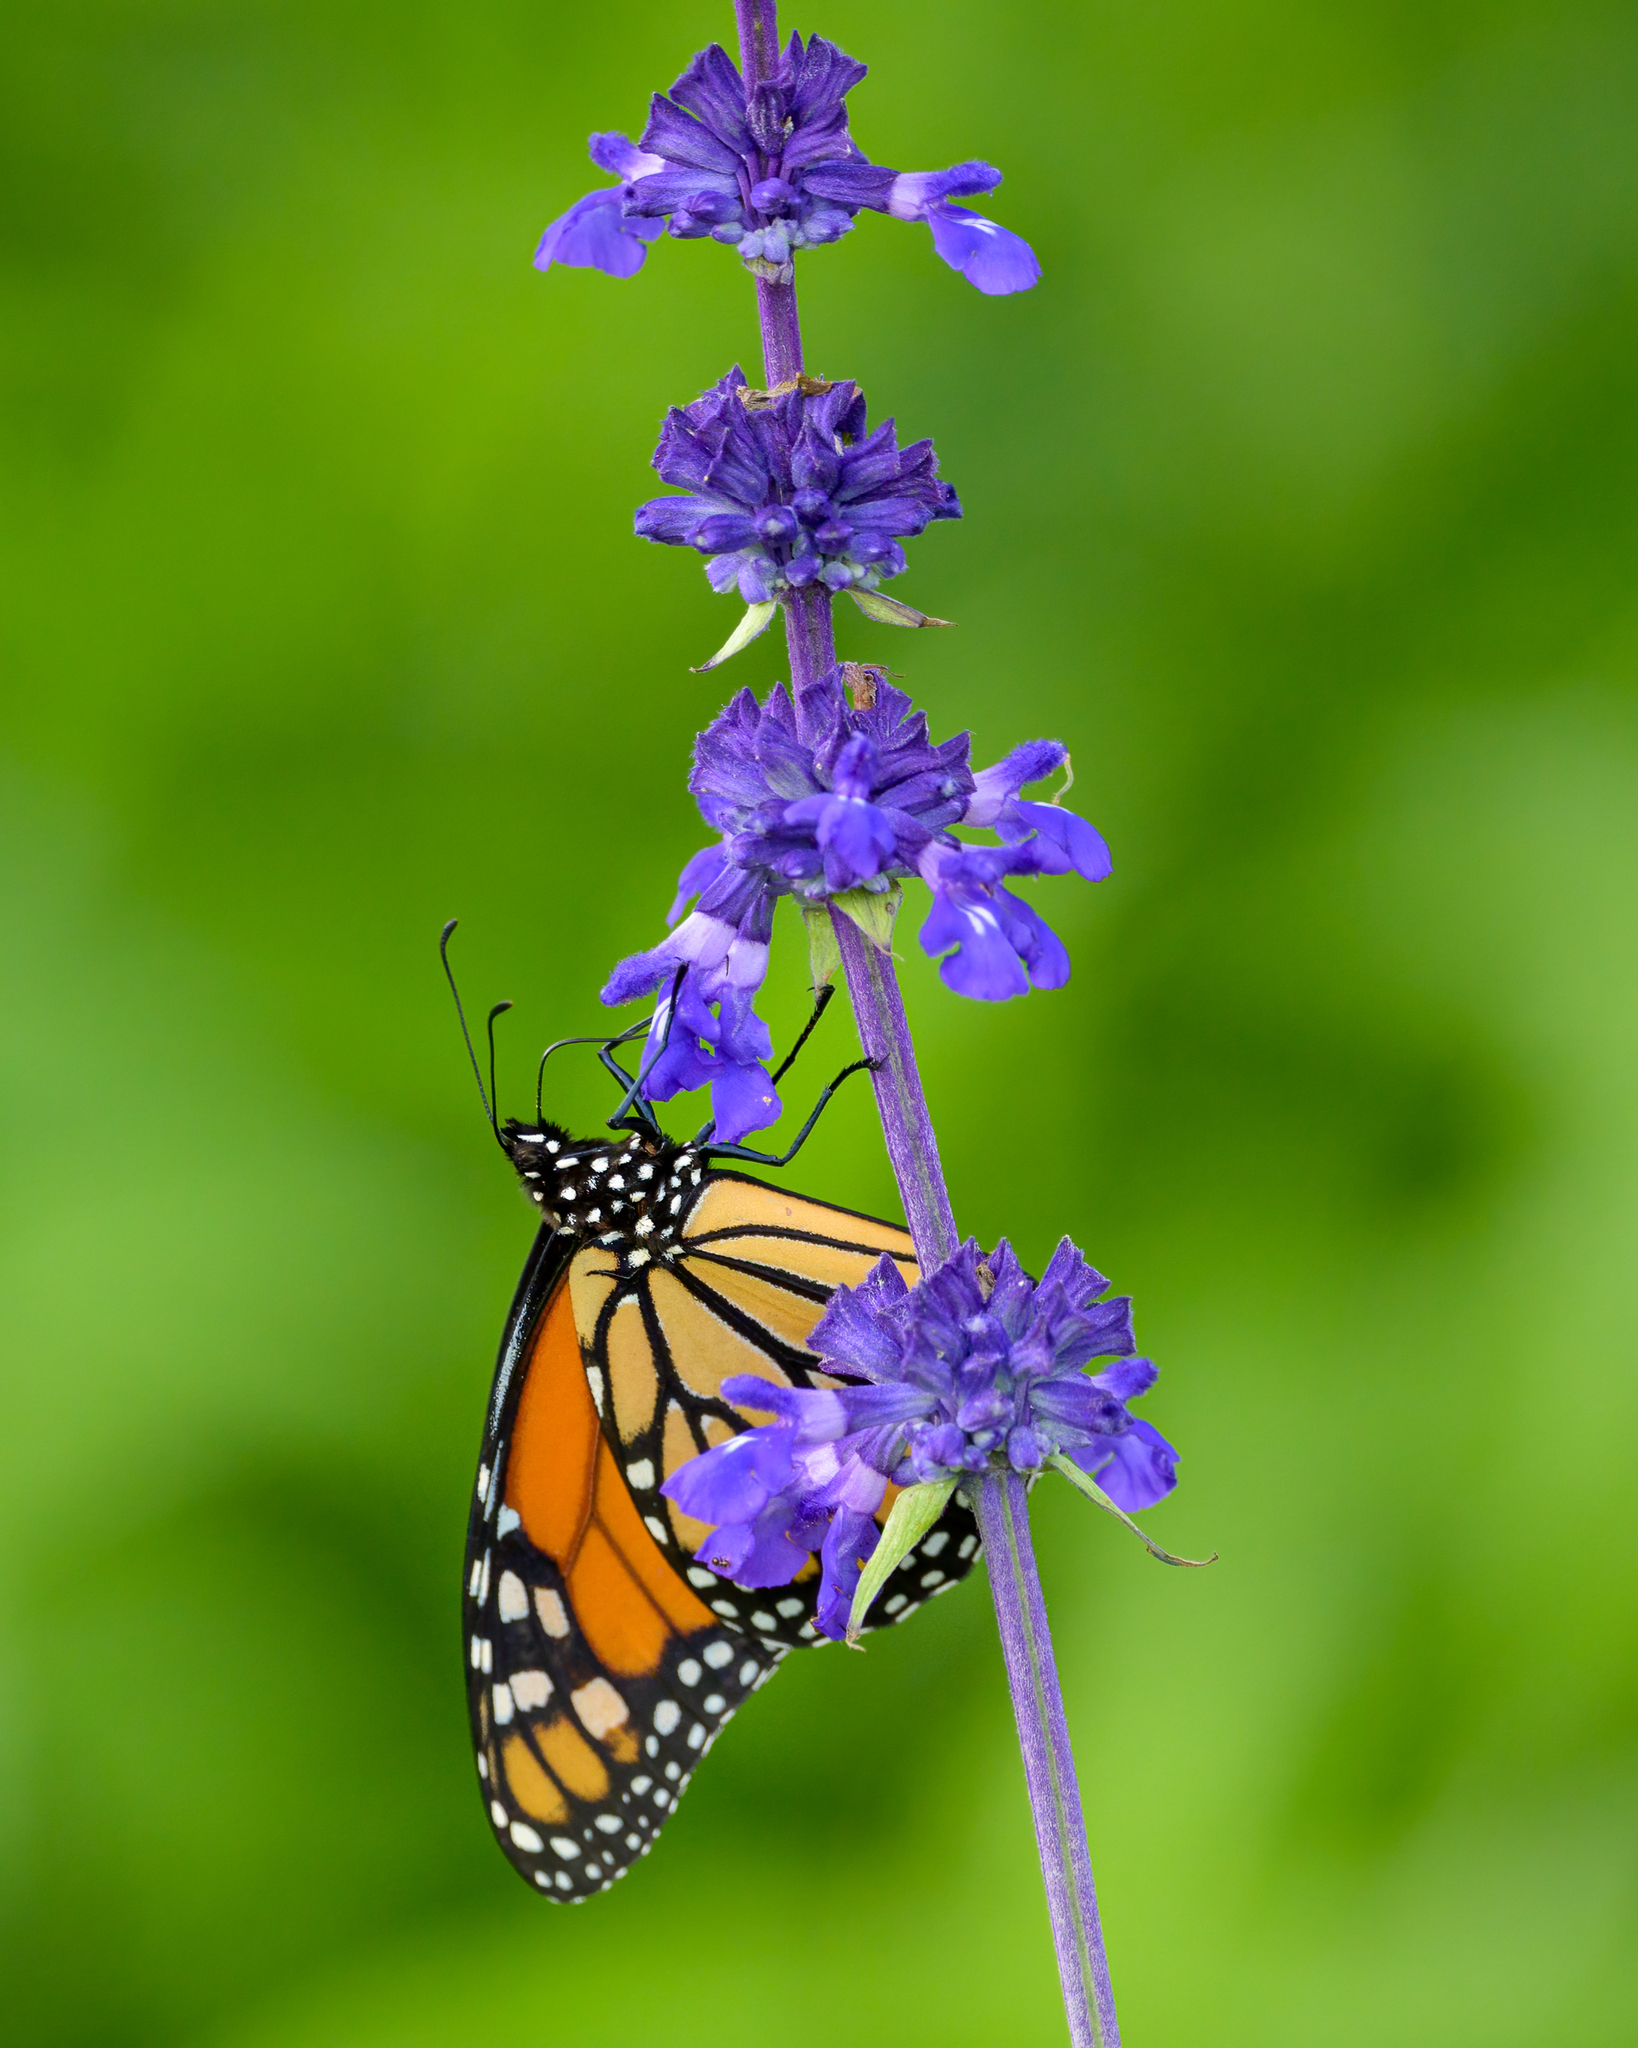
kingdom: Animalia
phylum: Arthropoda
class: Insecta
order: Lepidoptera
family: Nymphalidae
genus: Danaus
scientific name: Danaus plexippus
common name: Monarch
